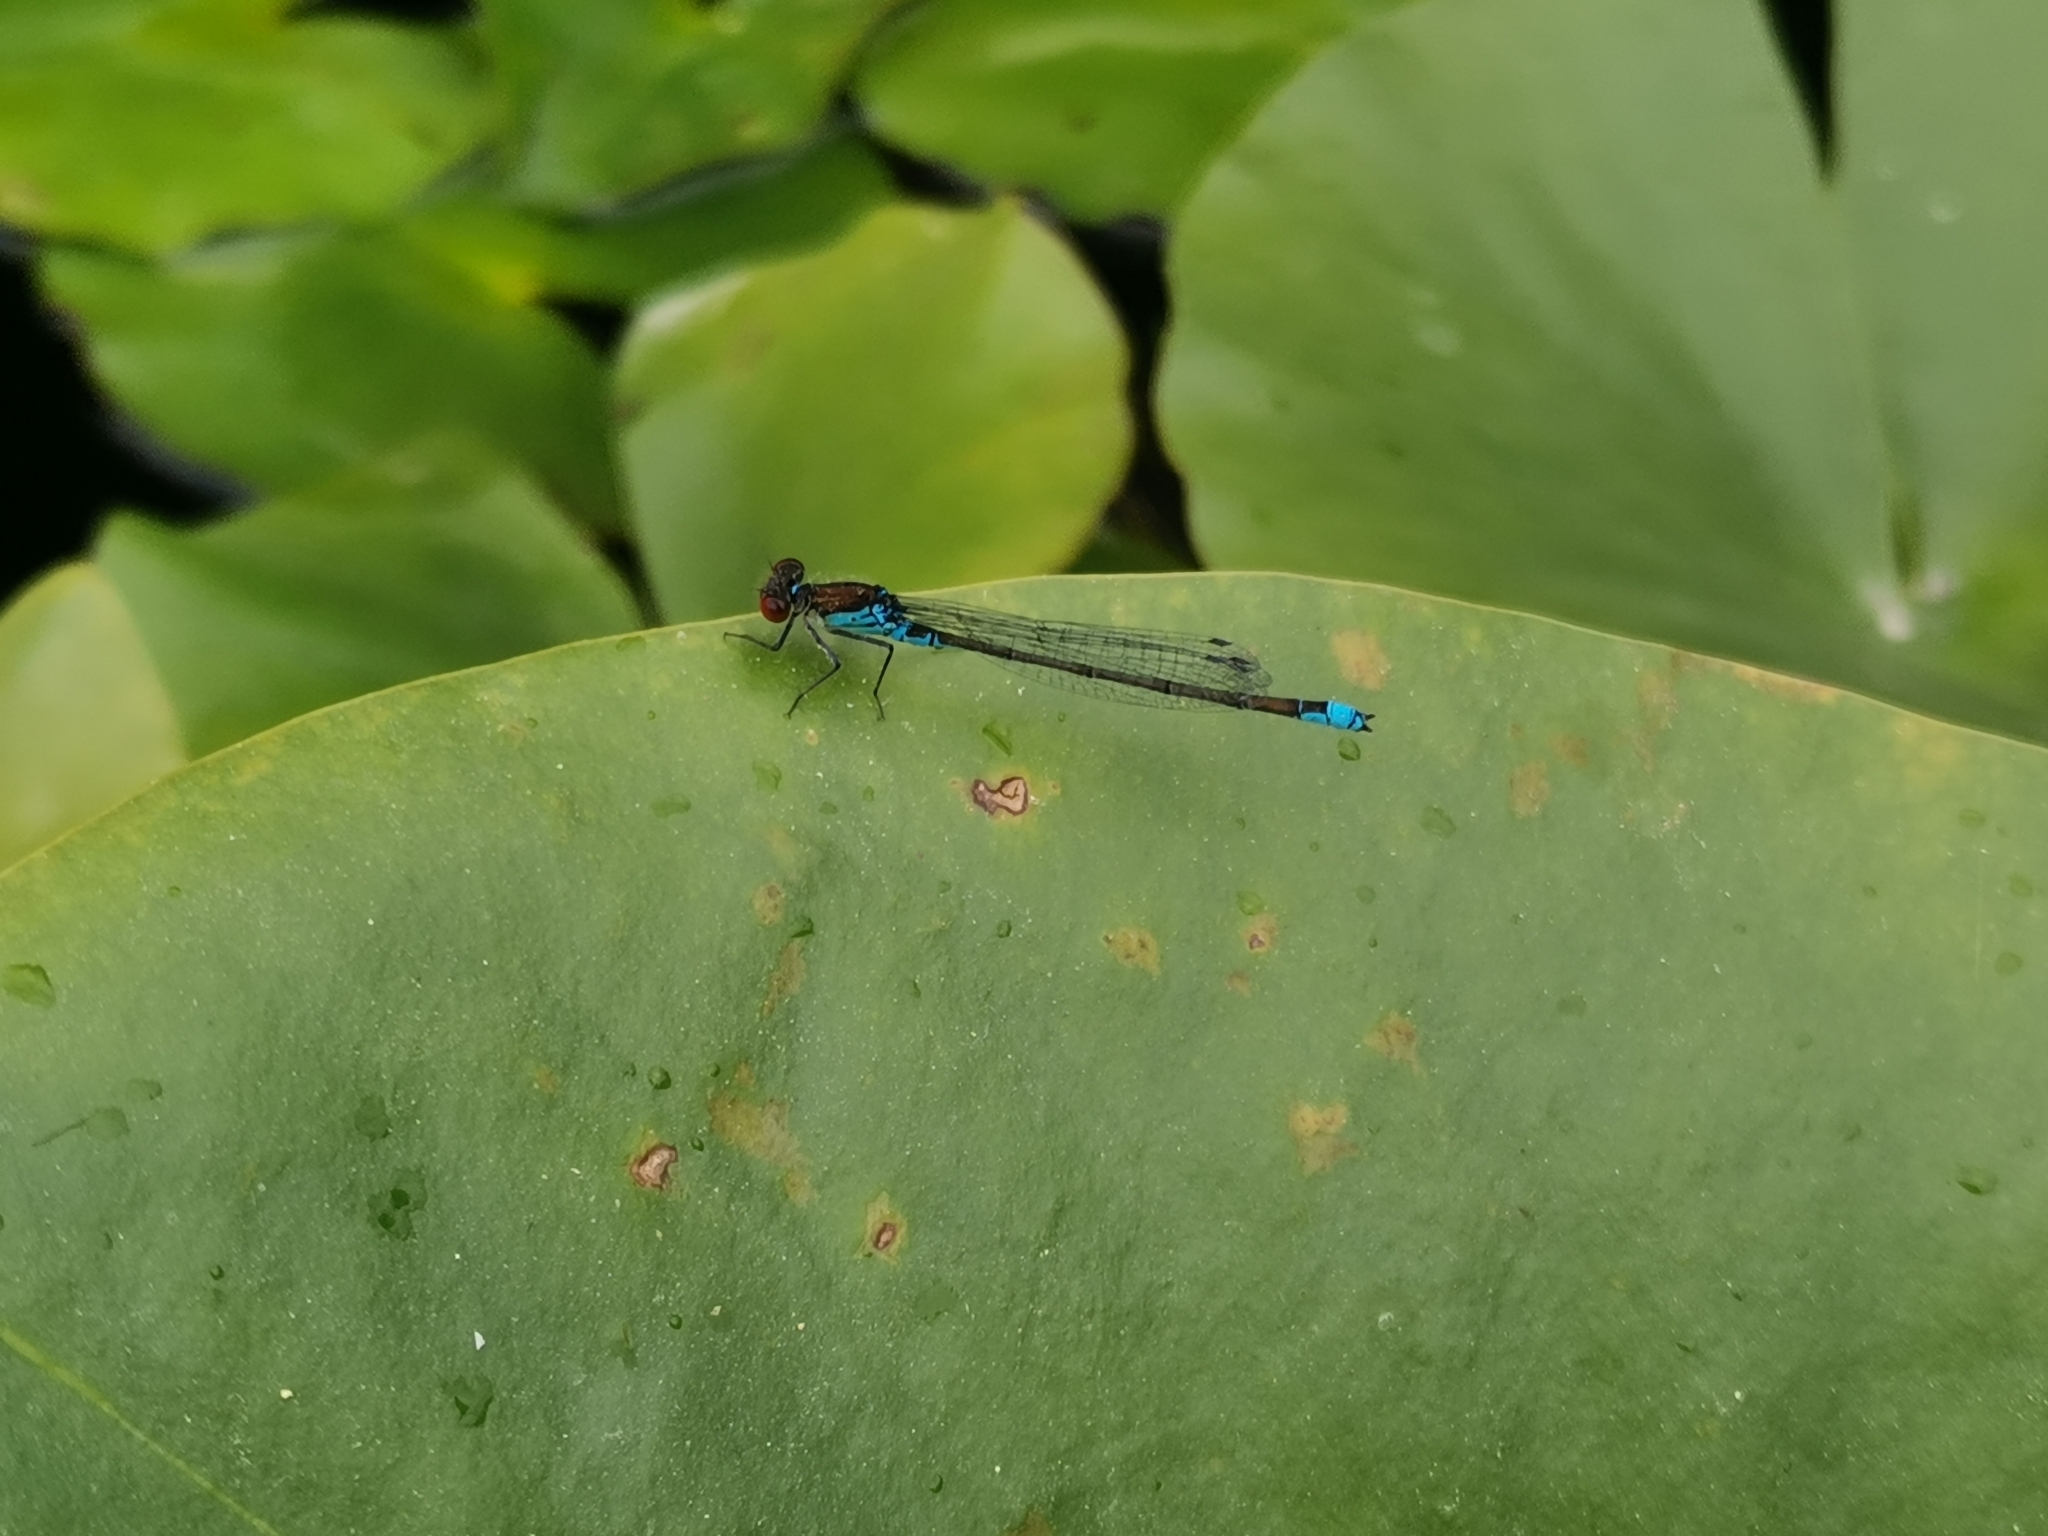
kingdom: Animalia
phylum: Arthropoda
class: Insecta
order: Odonata
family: Coenagrionidae
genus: Erythromma
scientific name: Erythromma viridulum
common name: Small red-eyed damselfly
